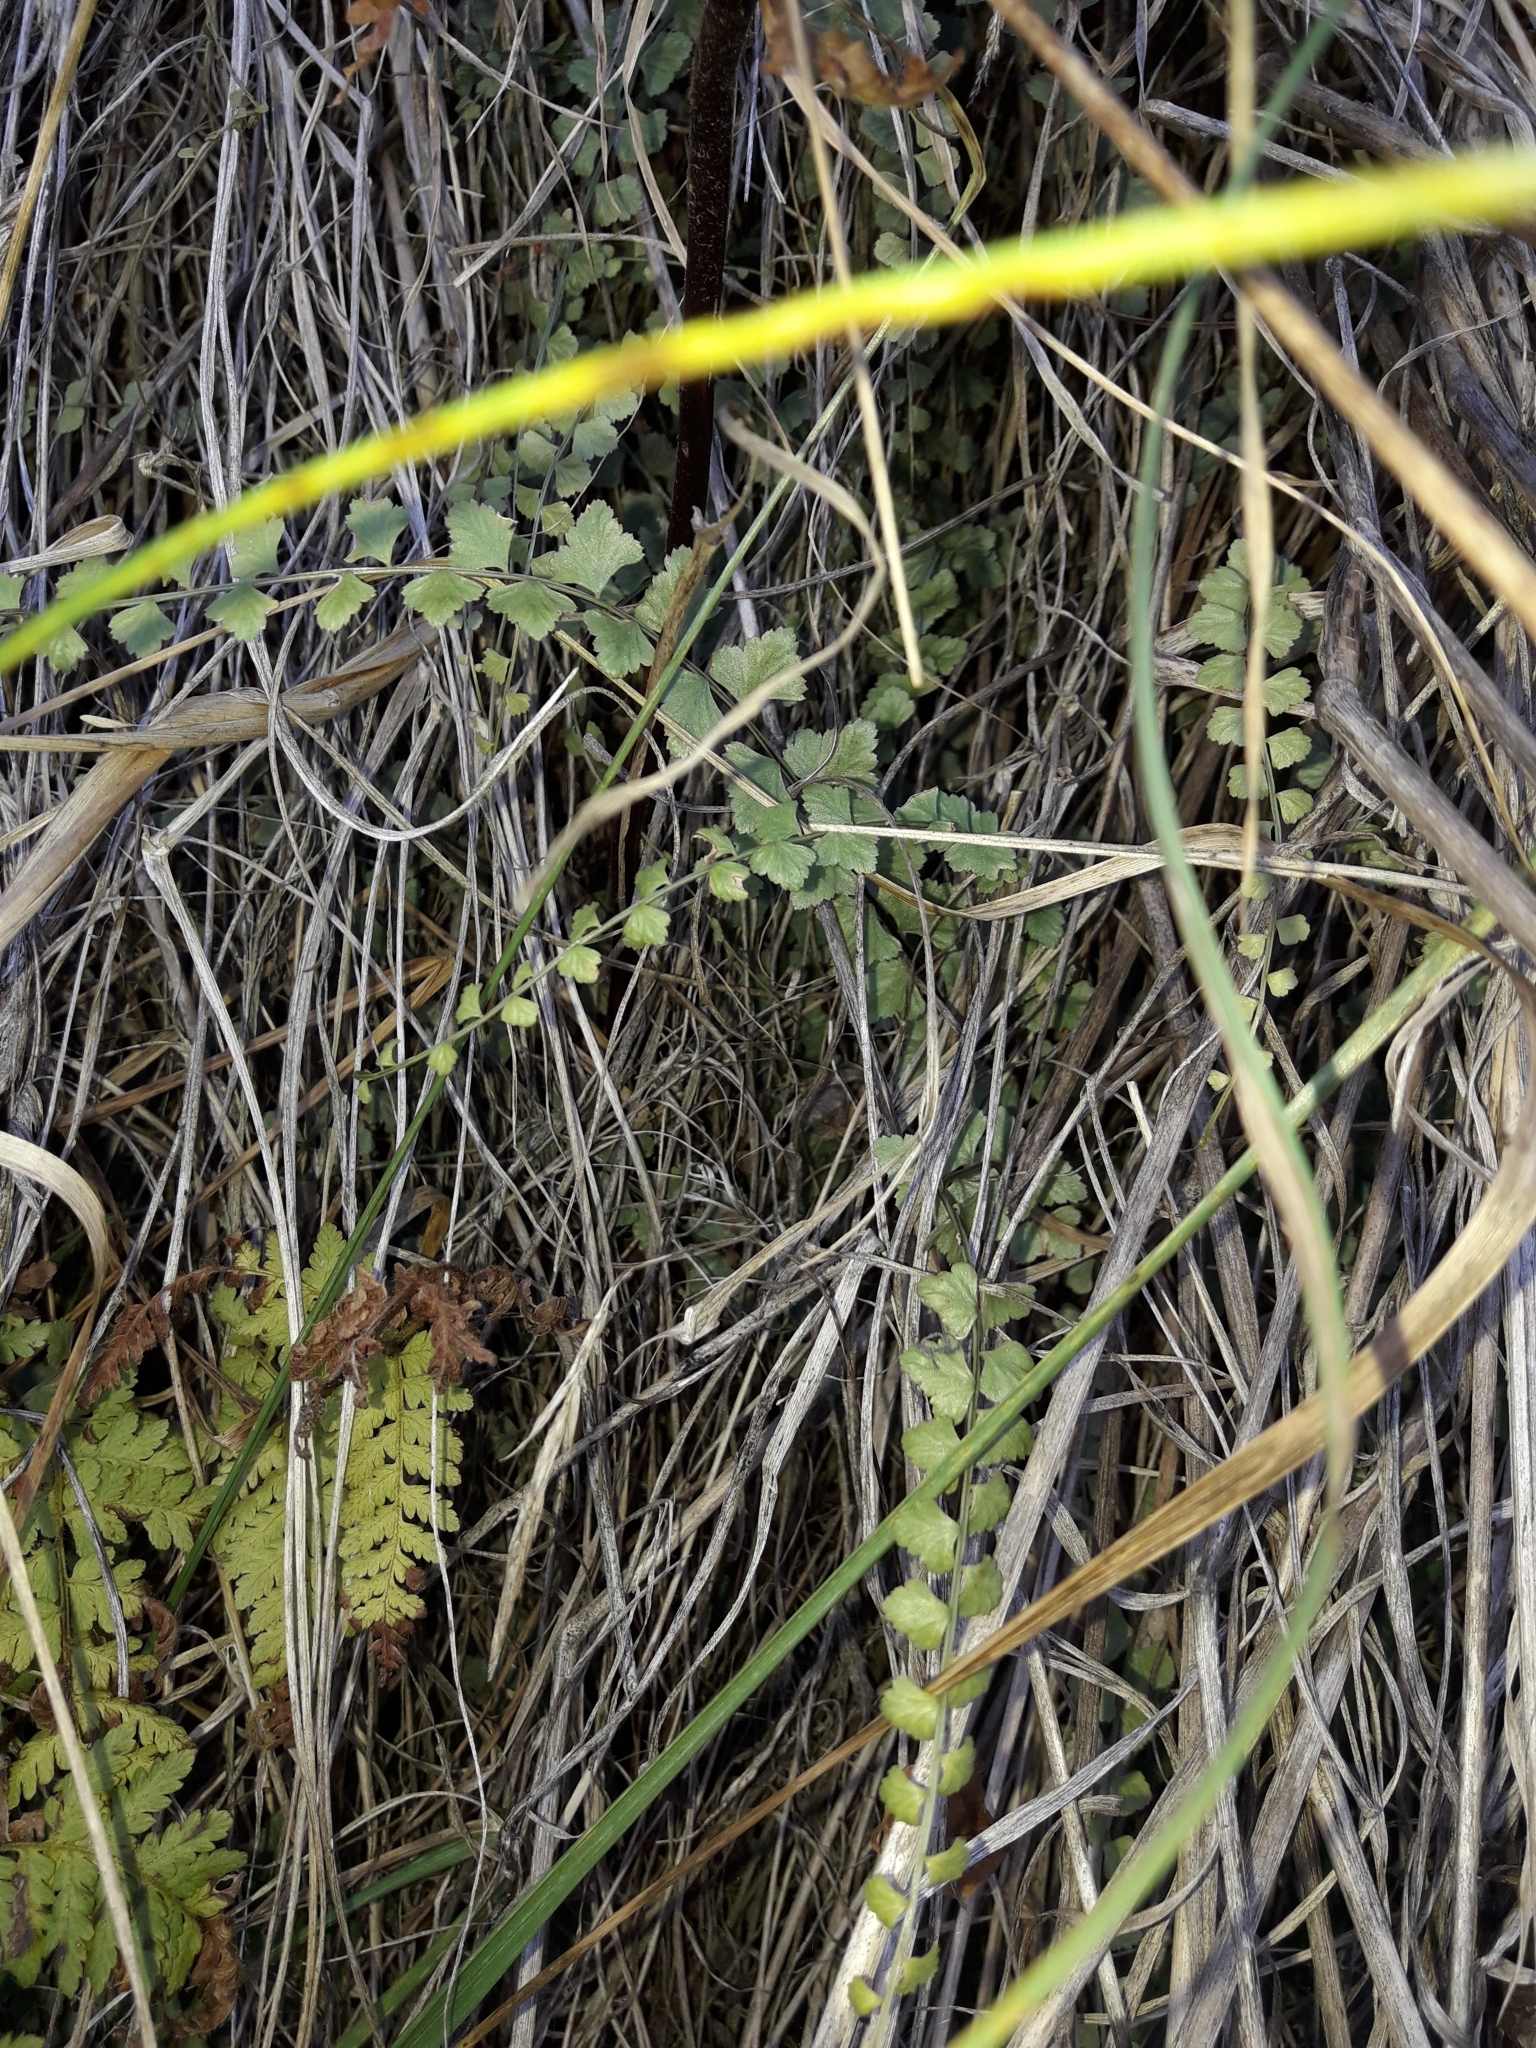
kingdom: Plantae
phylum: Tracheophyta
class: Polypodiopsida
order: Polypodiales
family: Aspleniaceae
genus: Asplenium
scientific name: Asplenium flabellifolium
